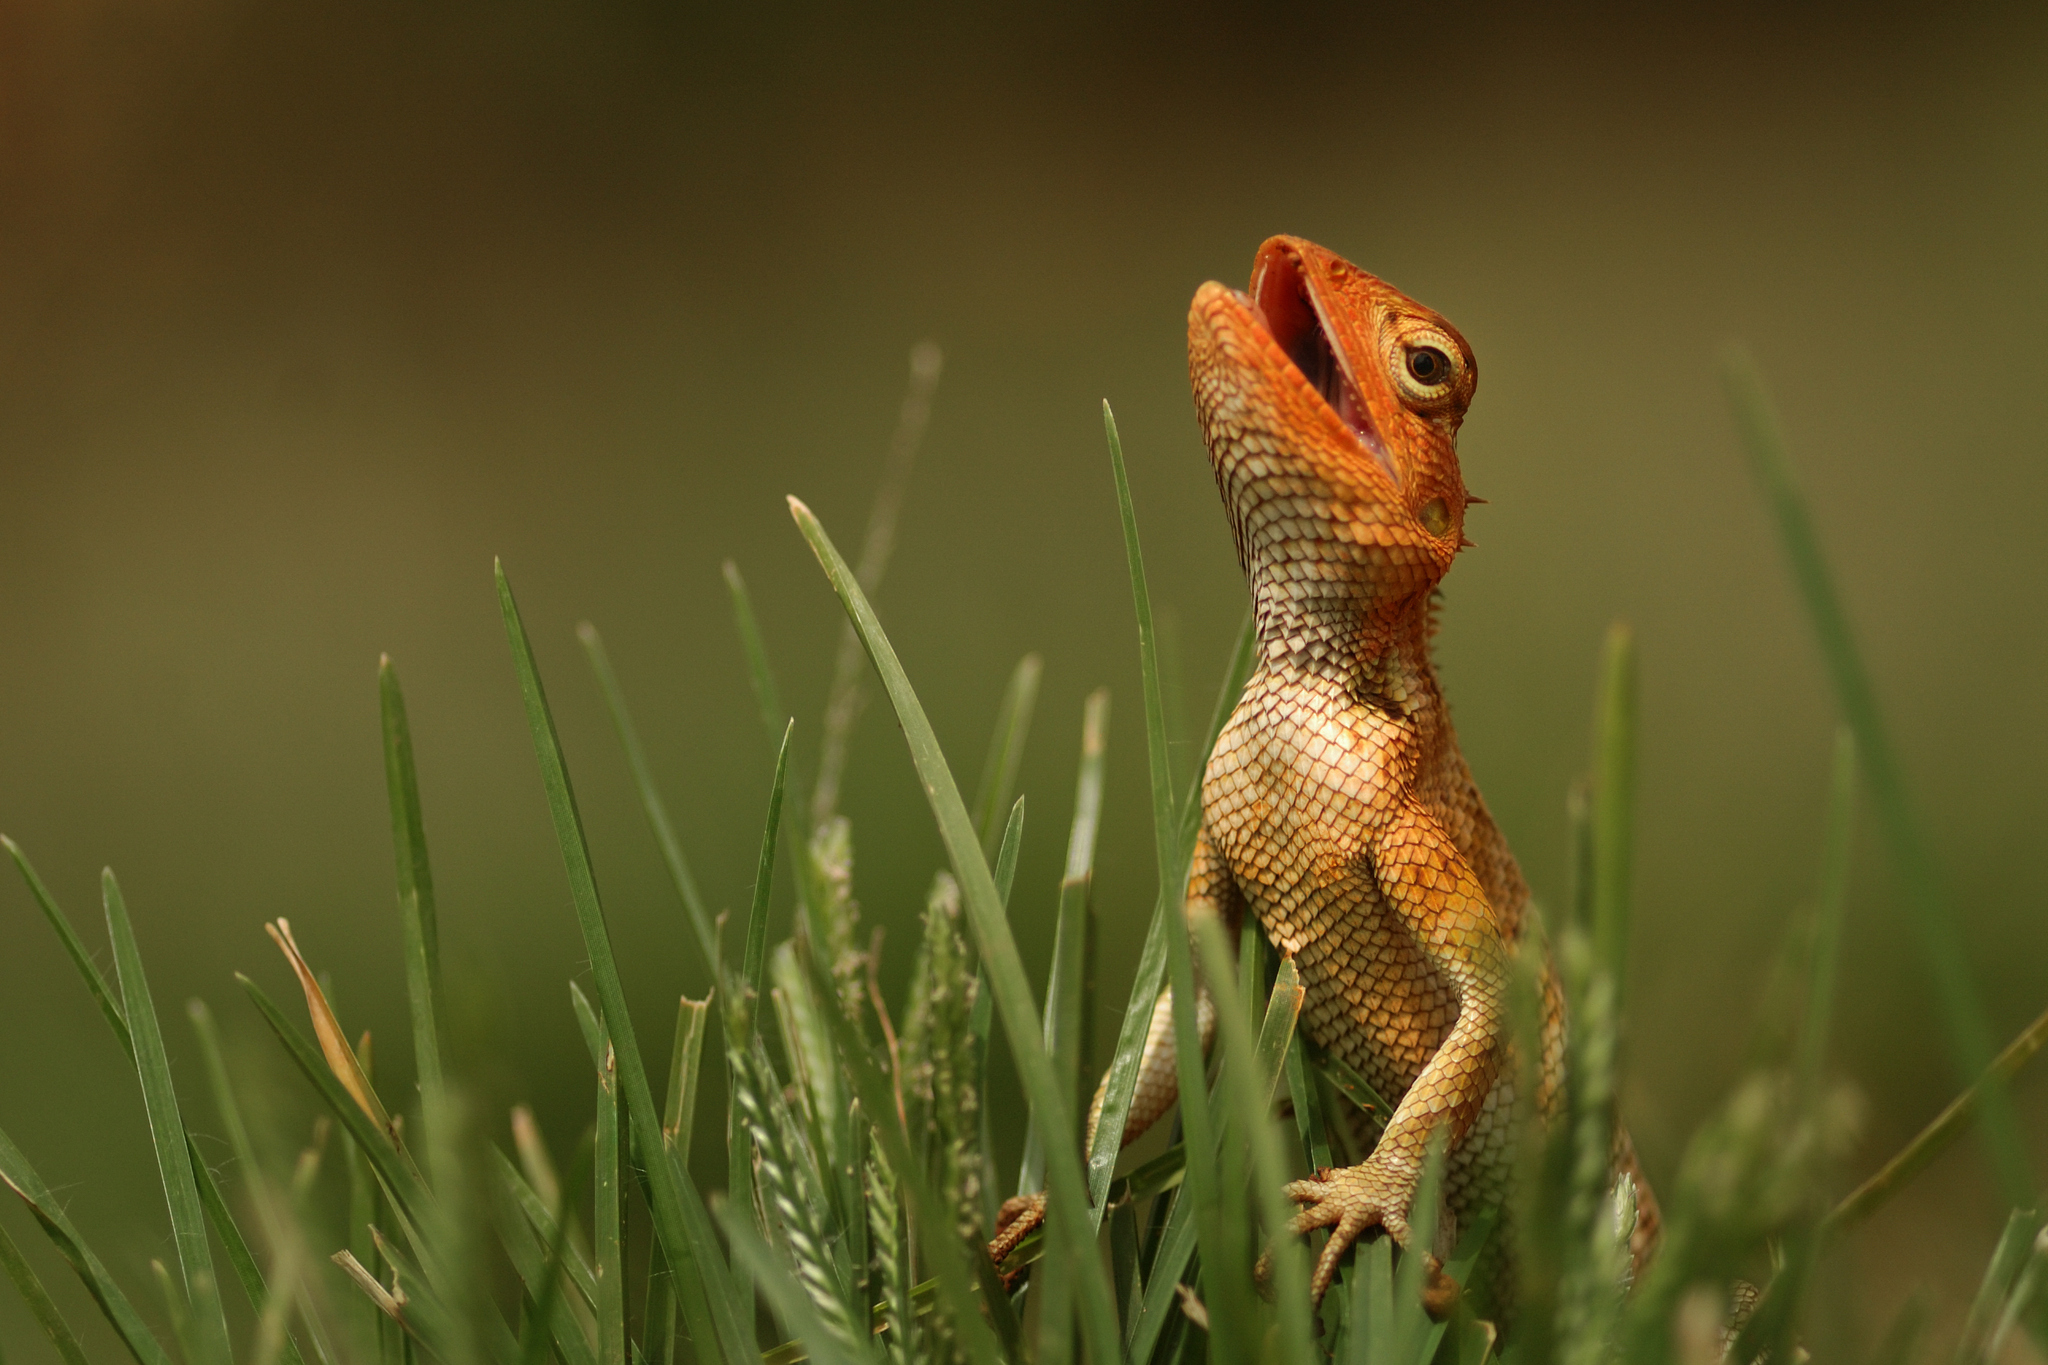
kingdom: Animalia
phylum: Chordata
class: Squamata
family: Agamidae
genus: Calotes
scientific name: Calotes versicolor
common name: Oriental garden lizard
